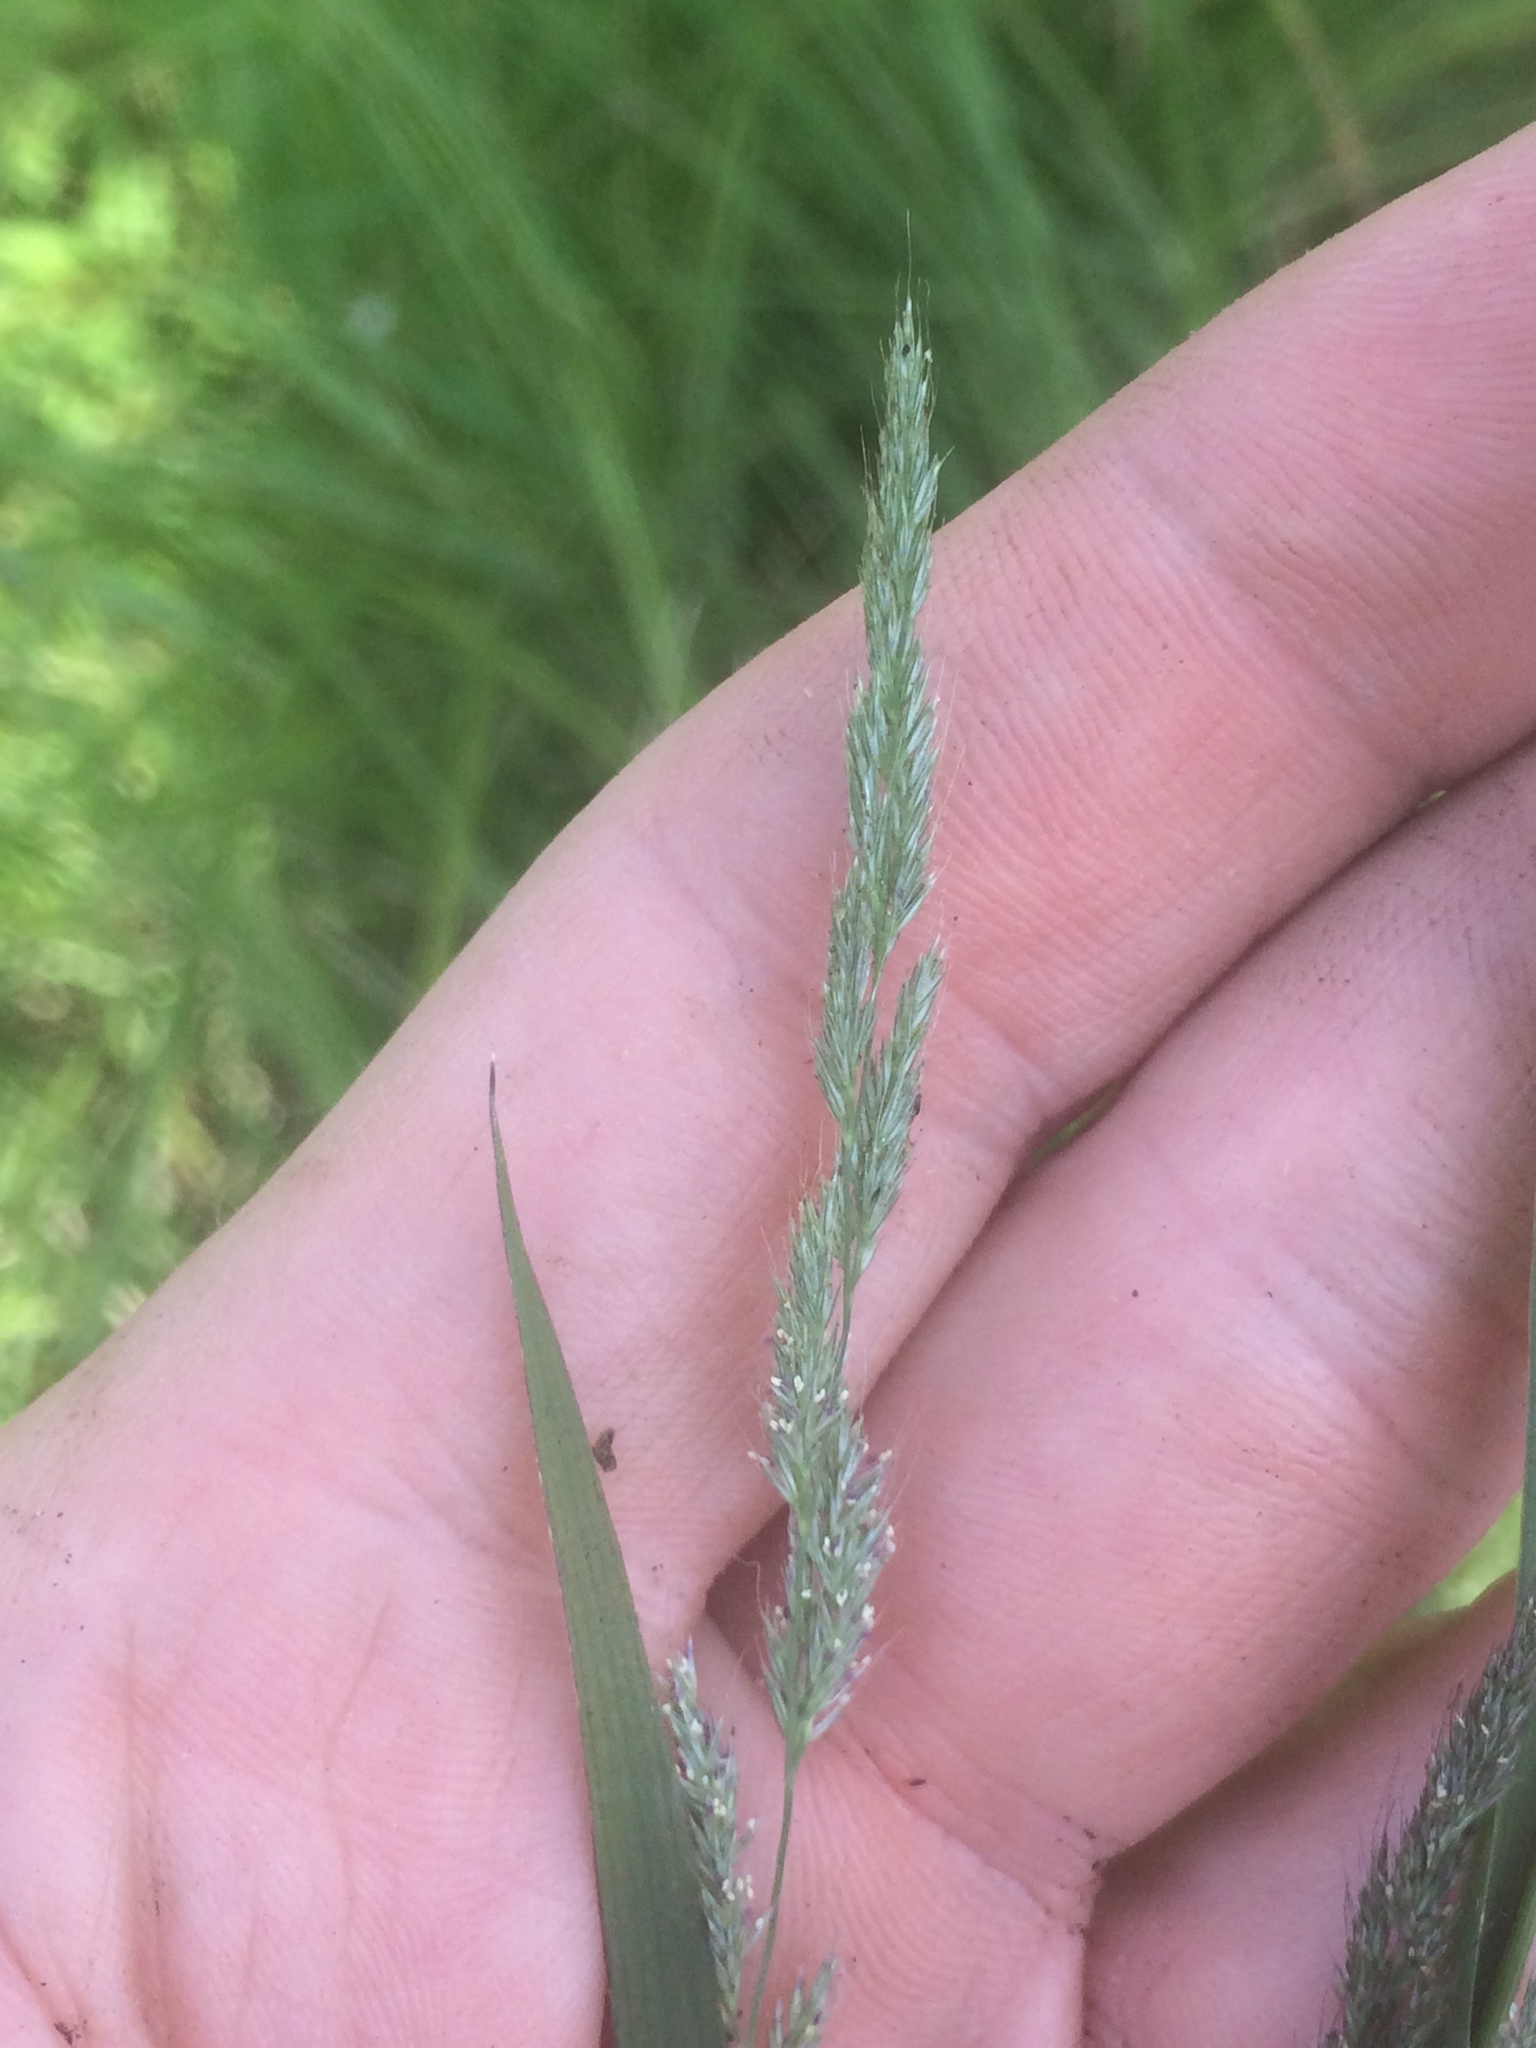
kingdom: Plantae
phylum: Tracheophyta
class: Liliopsida
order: Poales
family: Poaceae
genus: Muhlenbergia
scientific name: Muhlenbergia glomerata
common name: Bog muhly
